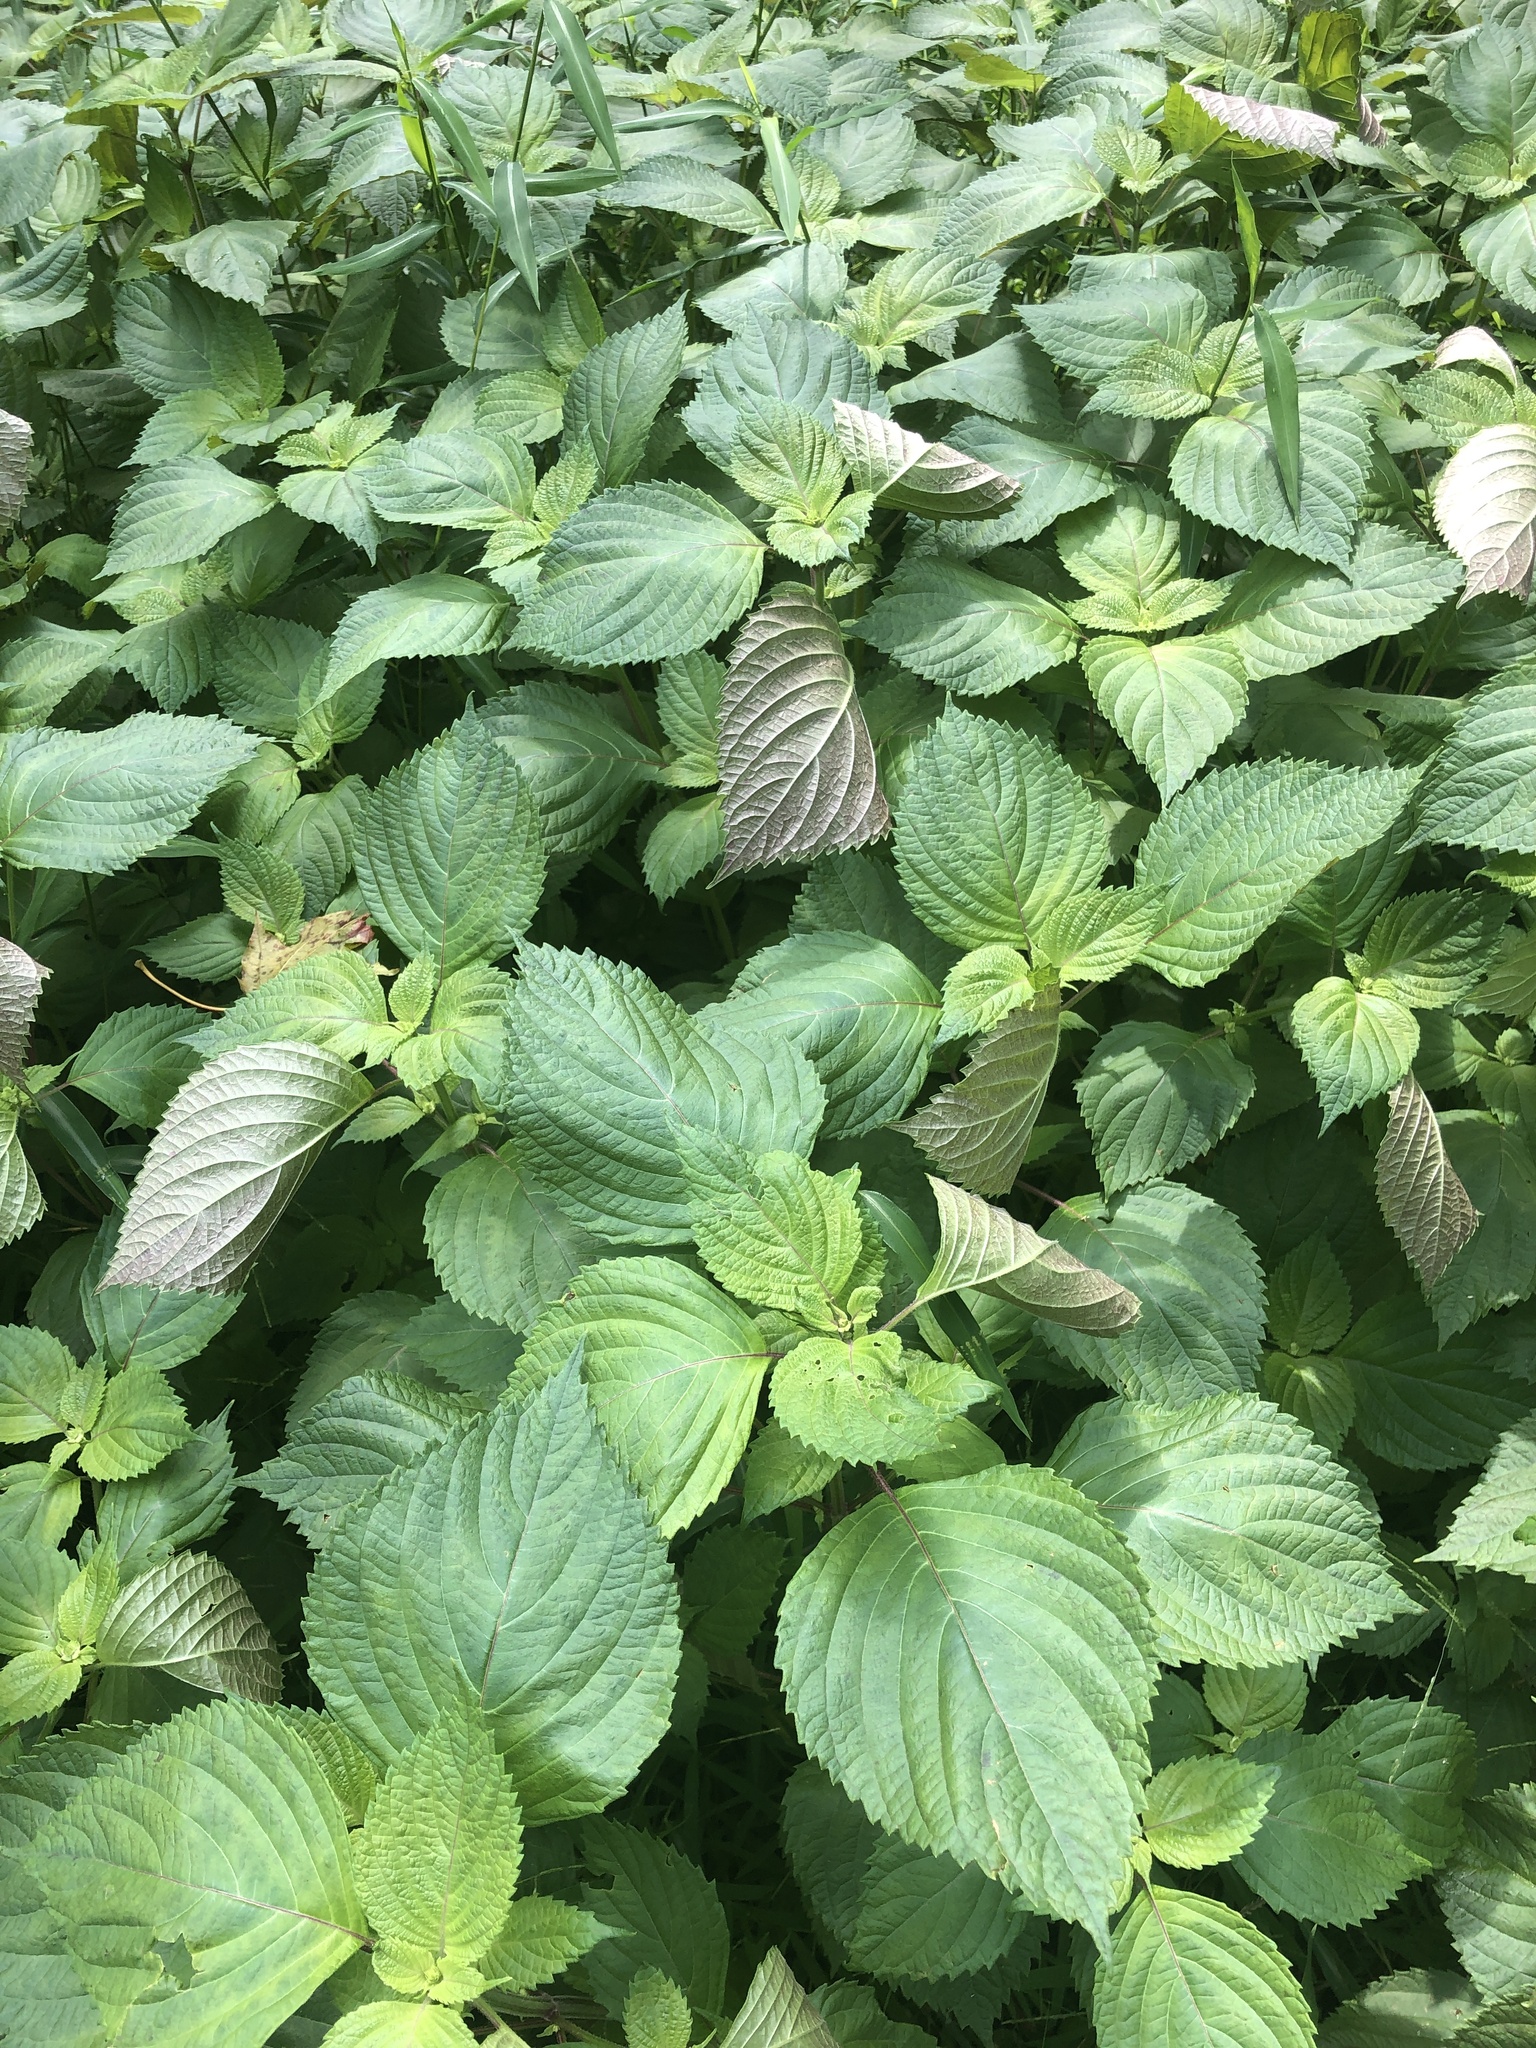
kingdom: Plantae
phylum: Tracheophyta
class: Magnoliopsida
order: Lamiales
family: Lamiaceae
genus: Perilla
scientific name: Perilla frutescens
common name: Perilla
